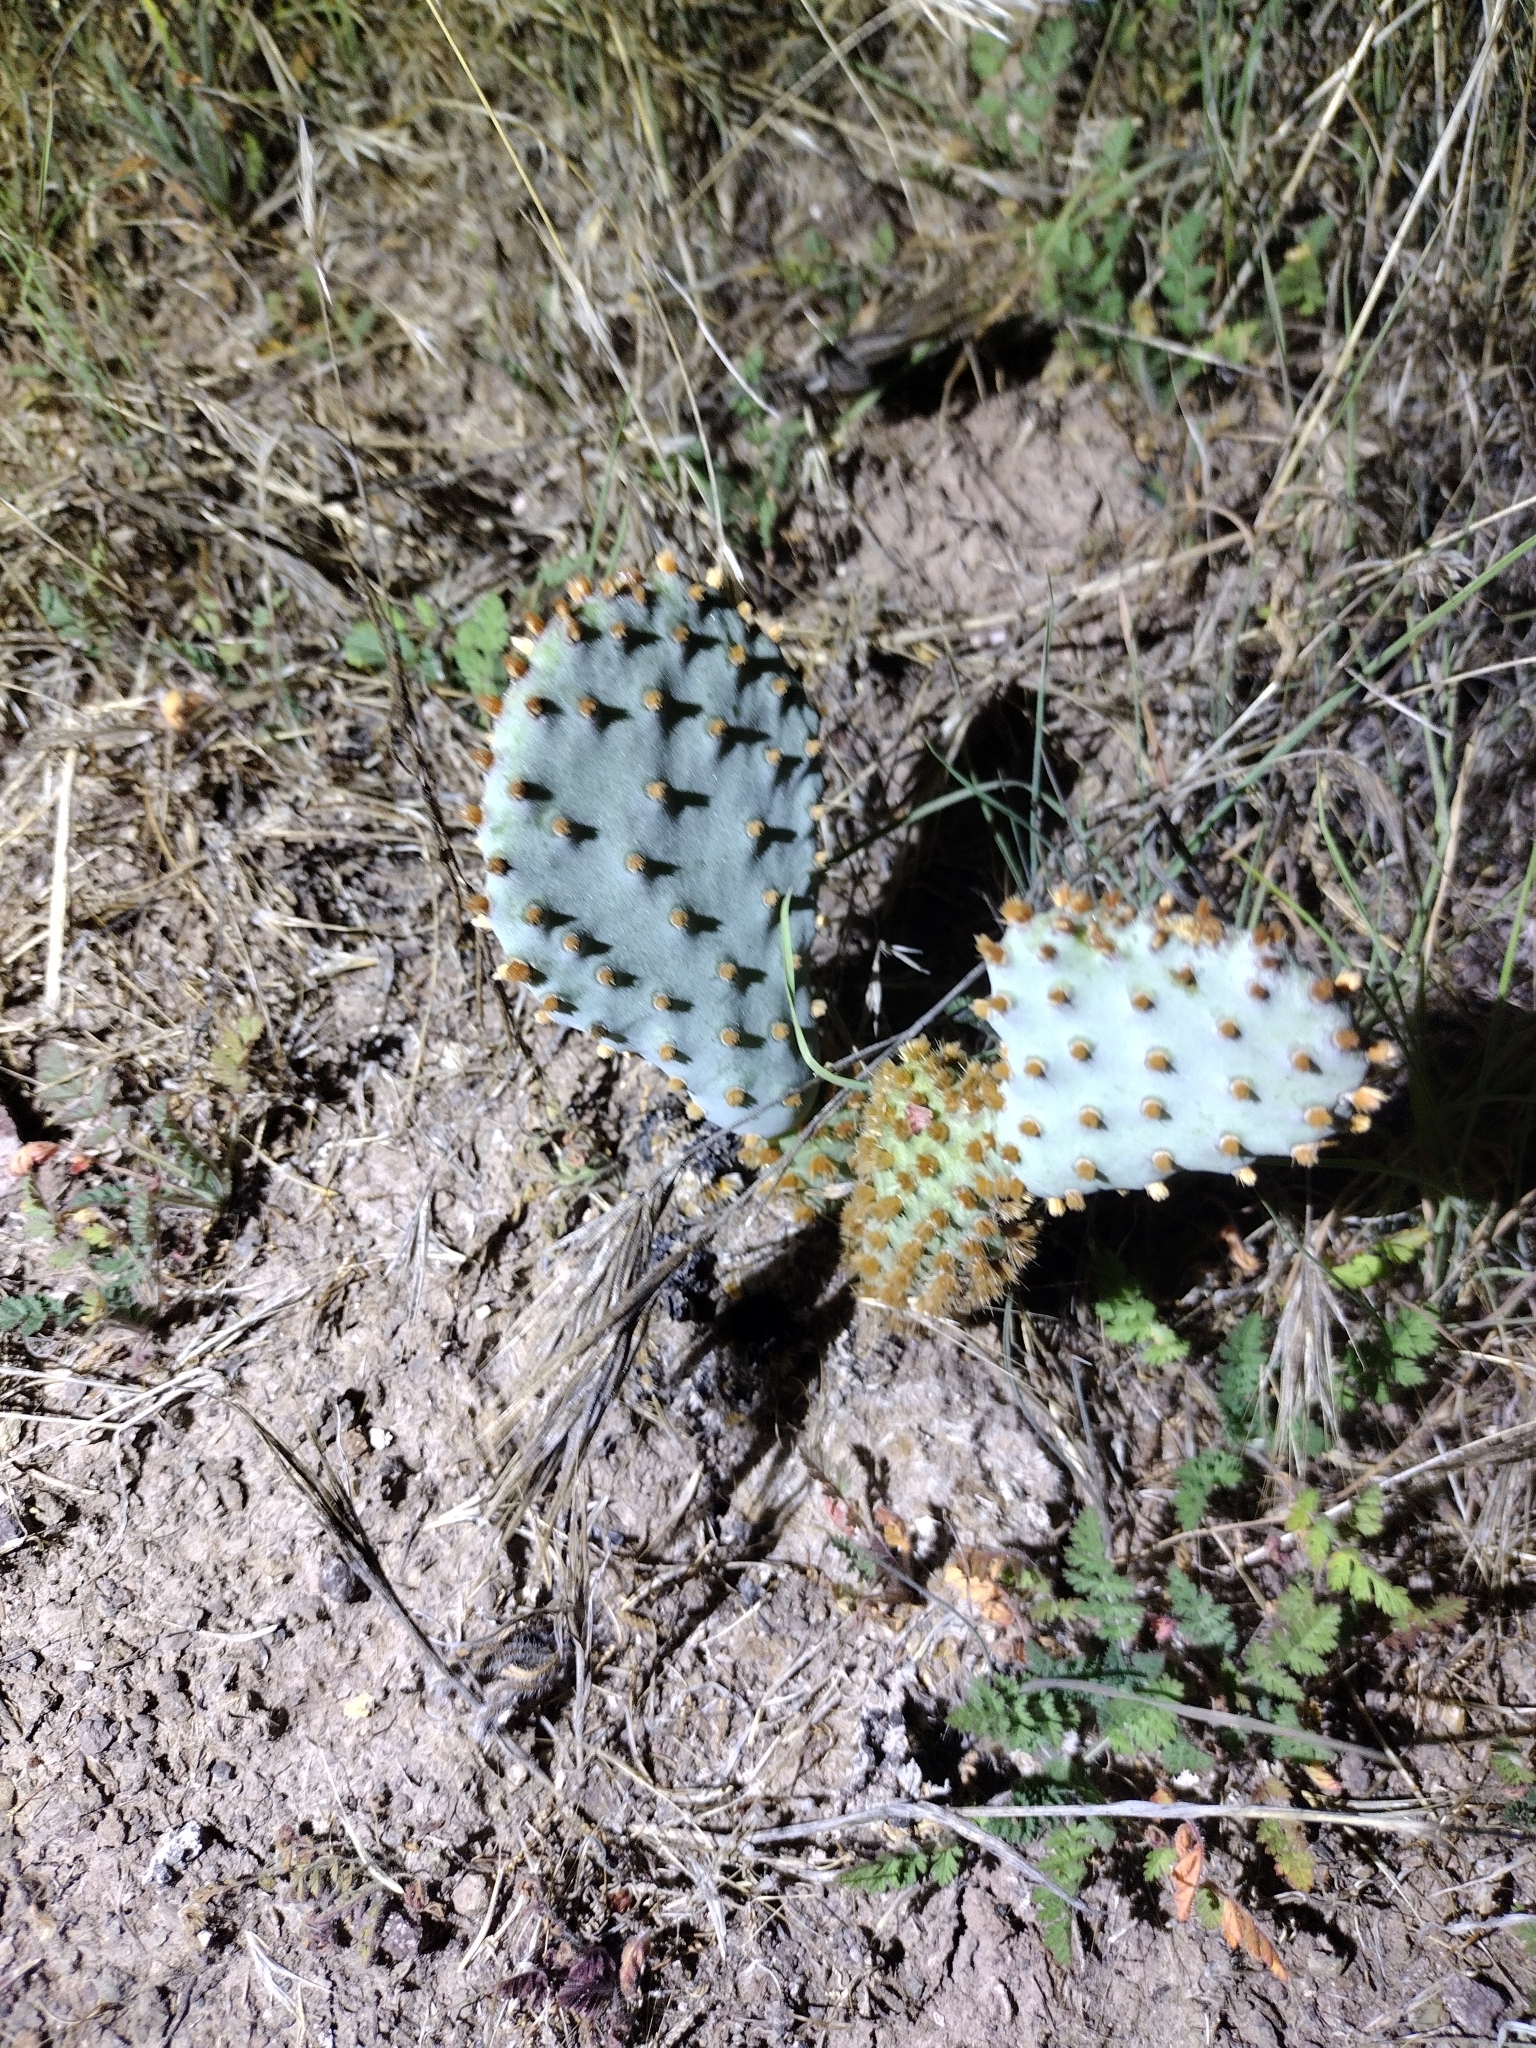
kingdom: Plantae
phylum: Tracheophyta
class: Magnoliopsida
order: Caryophyllales
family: Cactaceae
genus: Opuntia
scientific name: Opuntia basilaris
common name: Beavertail prickly-pear
